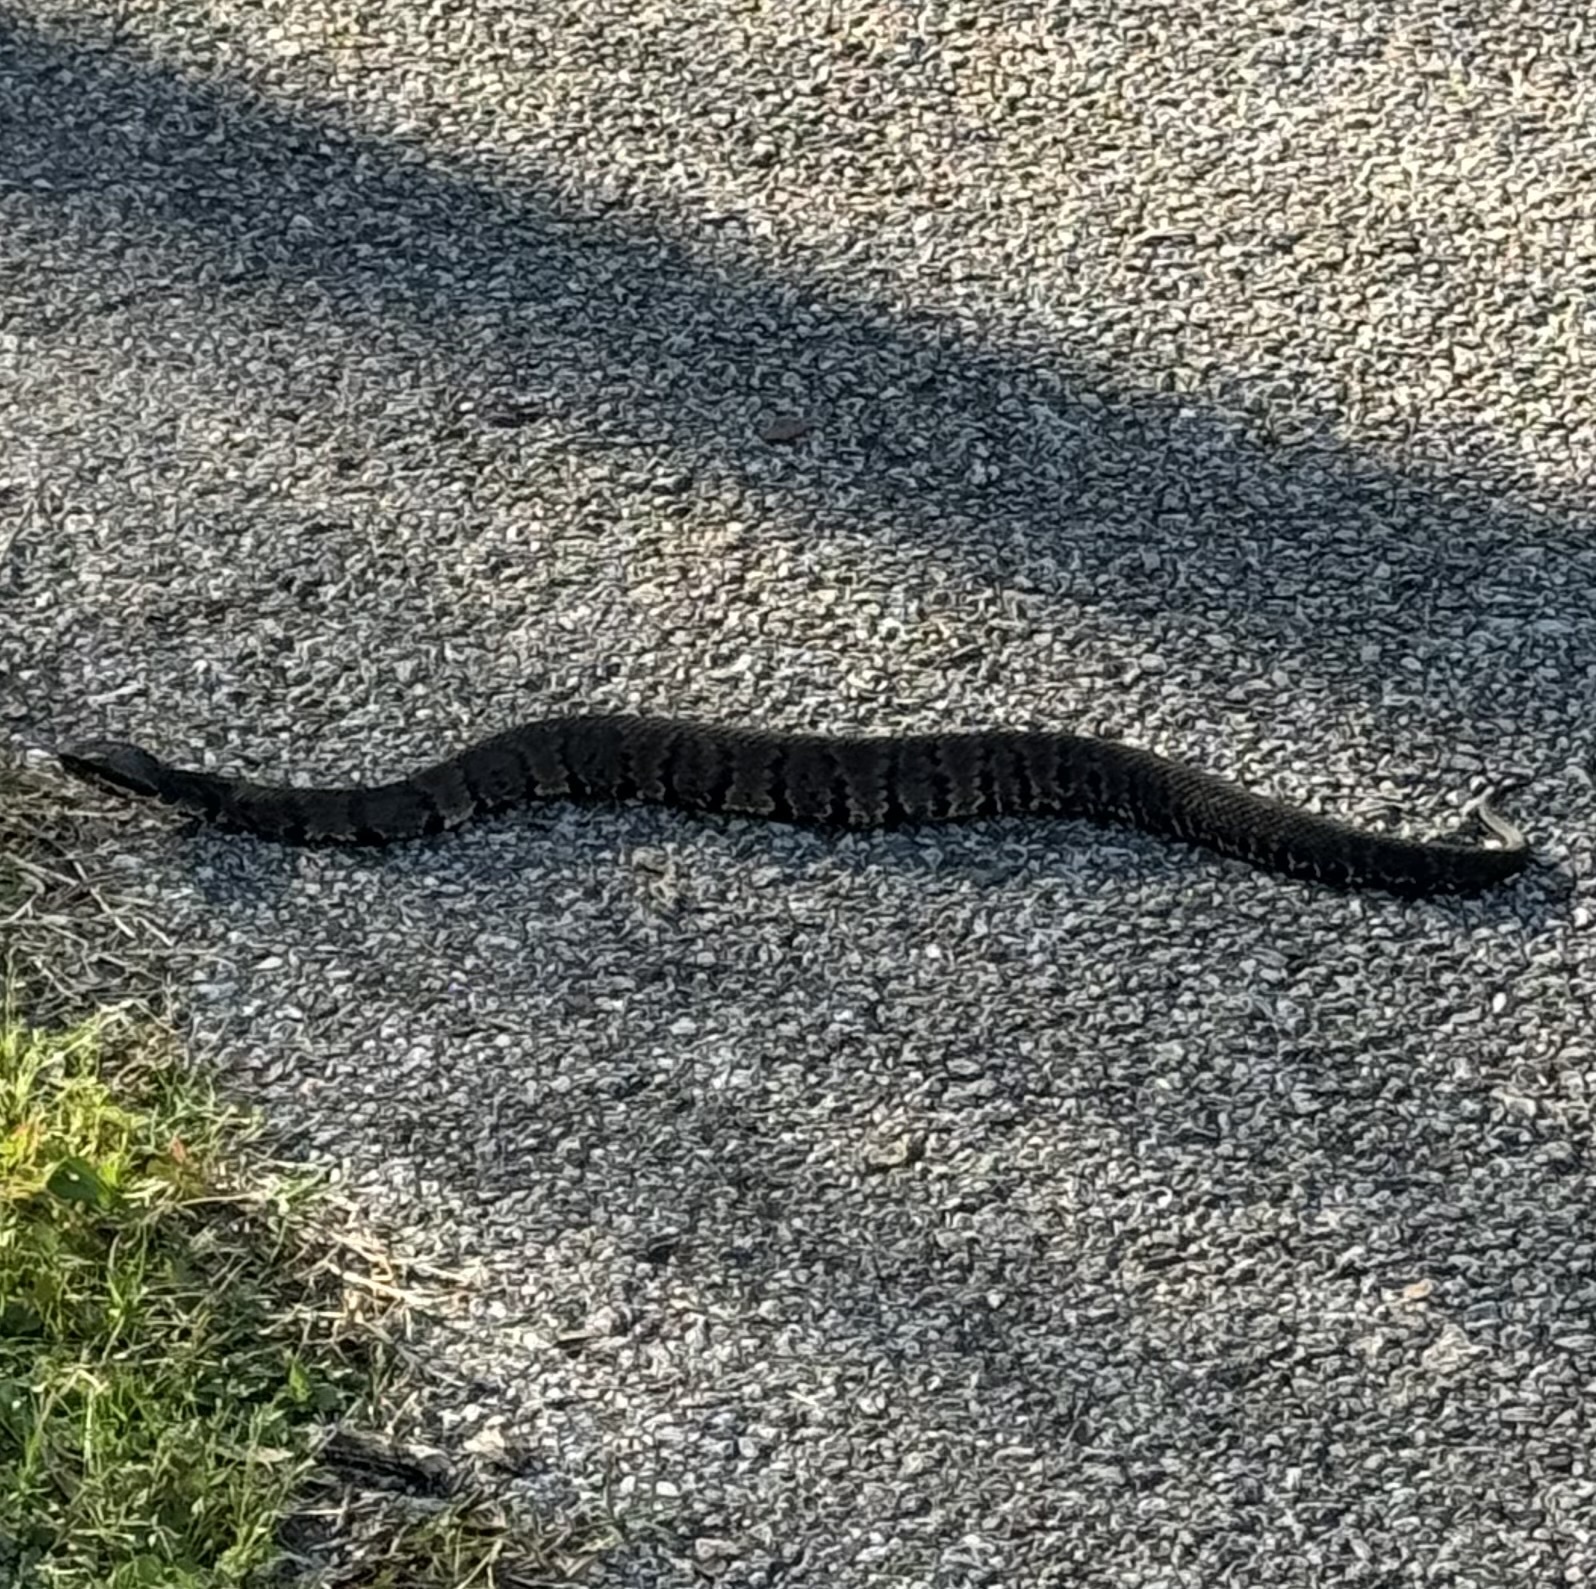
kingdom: Animalia
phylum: Chordata
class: Squamata
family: Viperidae
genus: Agkistrodon
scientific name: Agkistrodon piscivorus
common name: Cottonmouth
